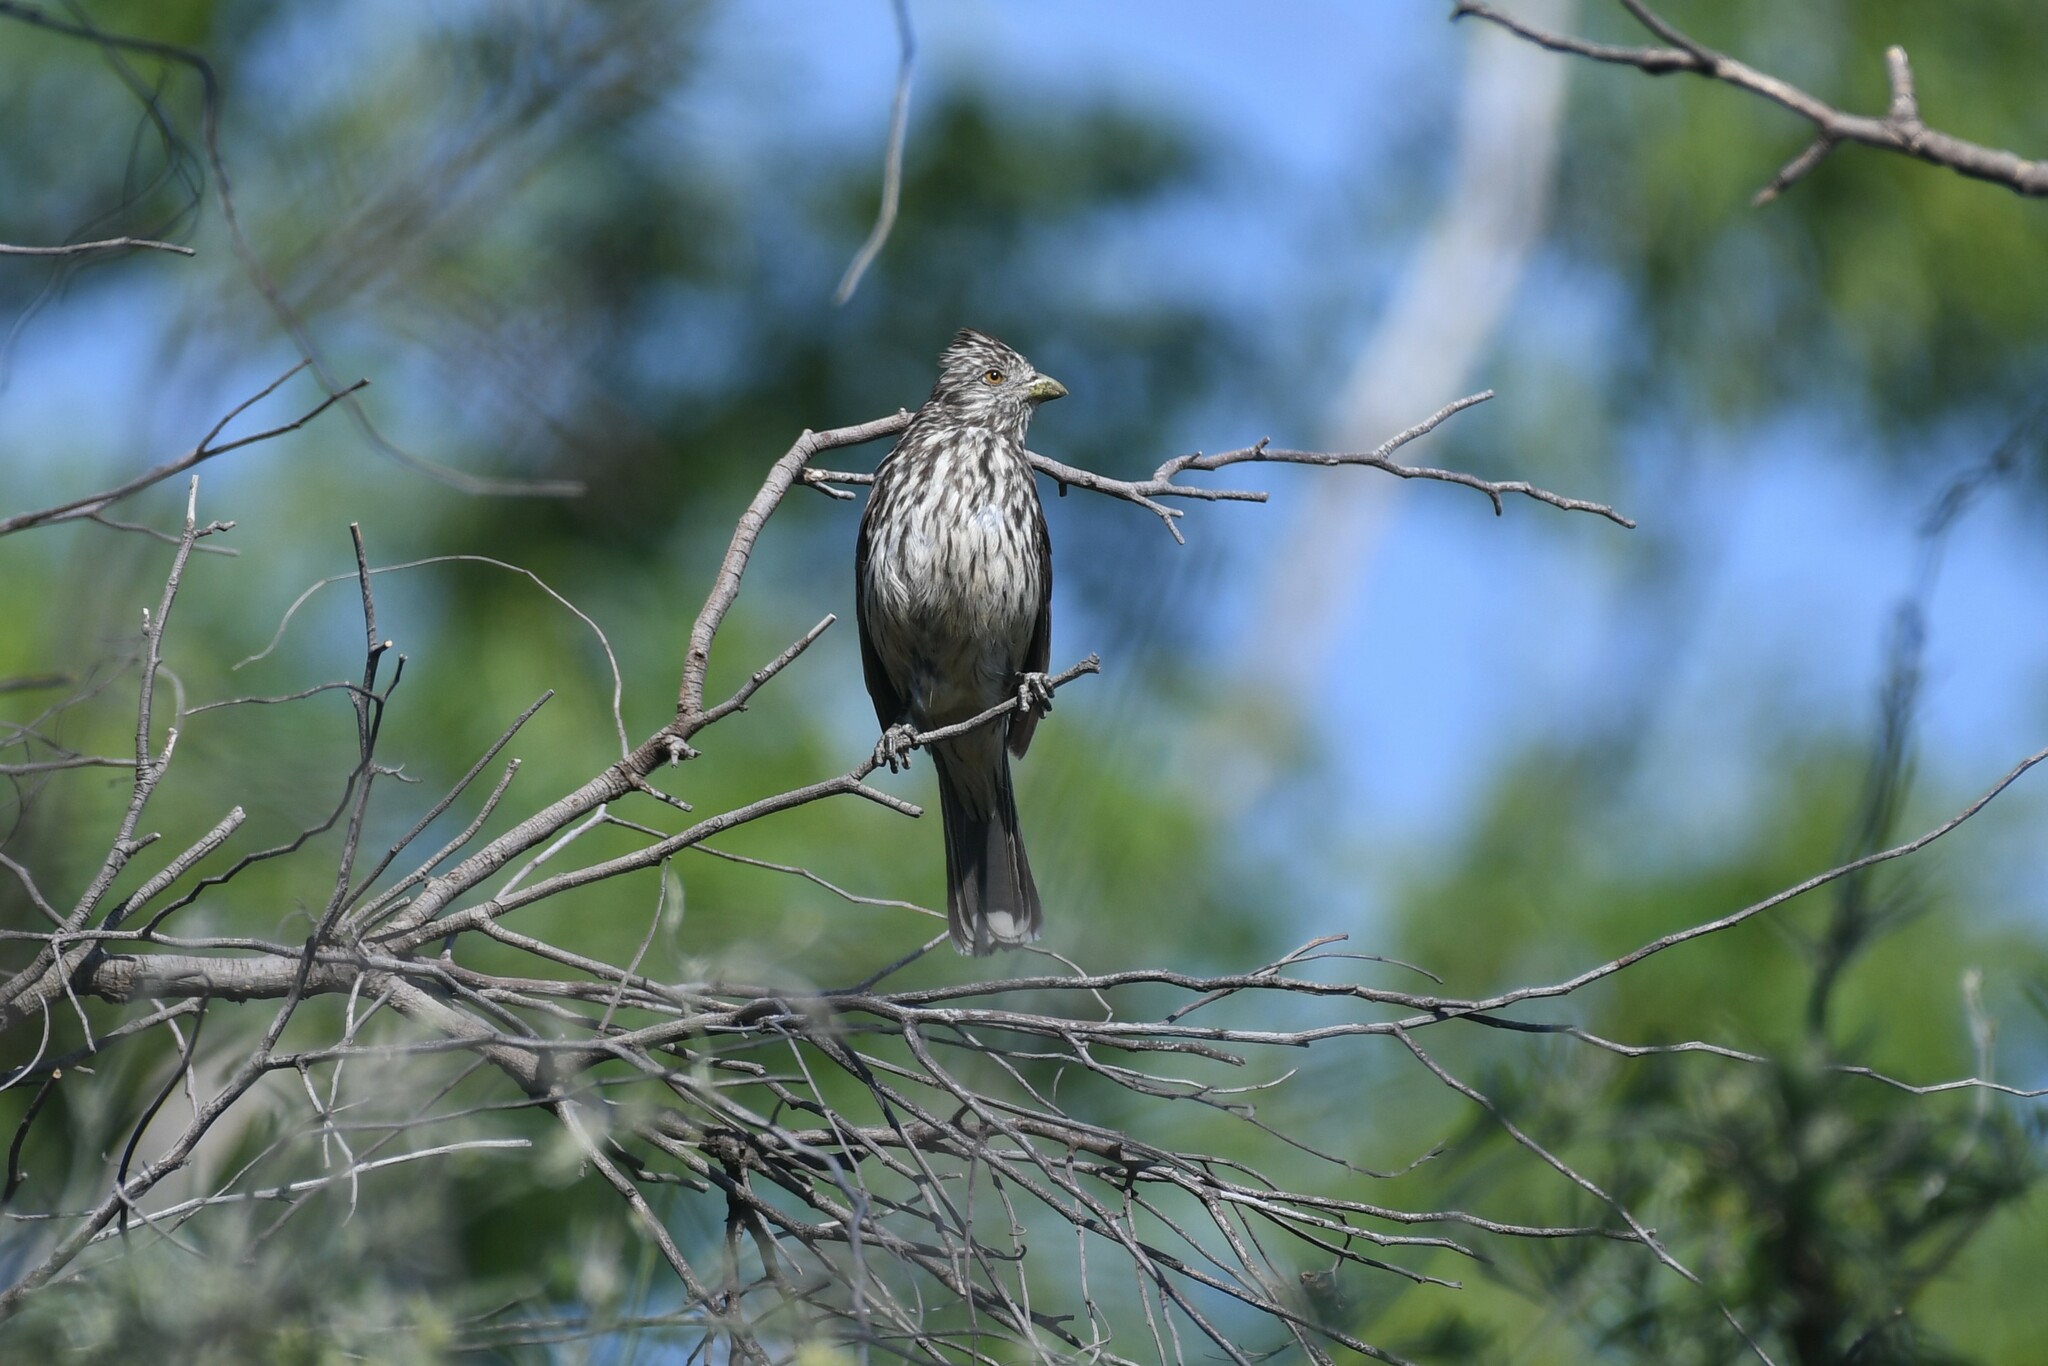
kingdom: Animalia
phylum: Chordata
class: Aves
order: Passeriformes
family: Cotingidae
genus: Phytotoma
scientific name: Phytotoma rutila
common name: White-tipped plantcutter
